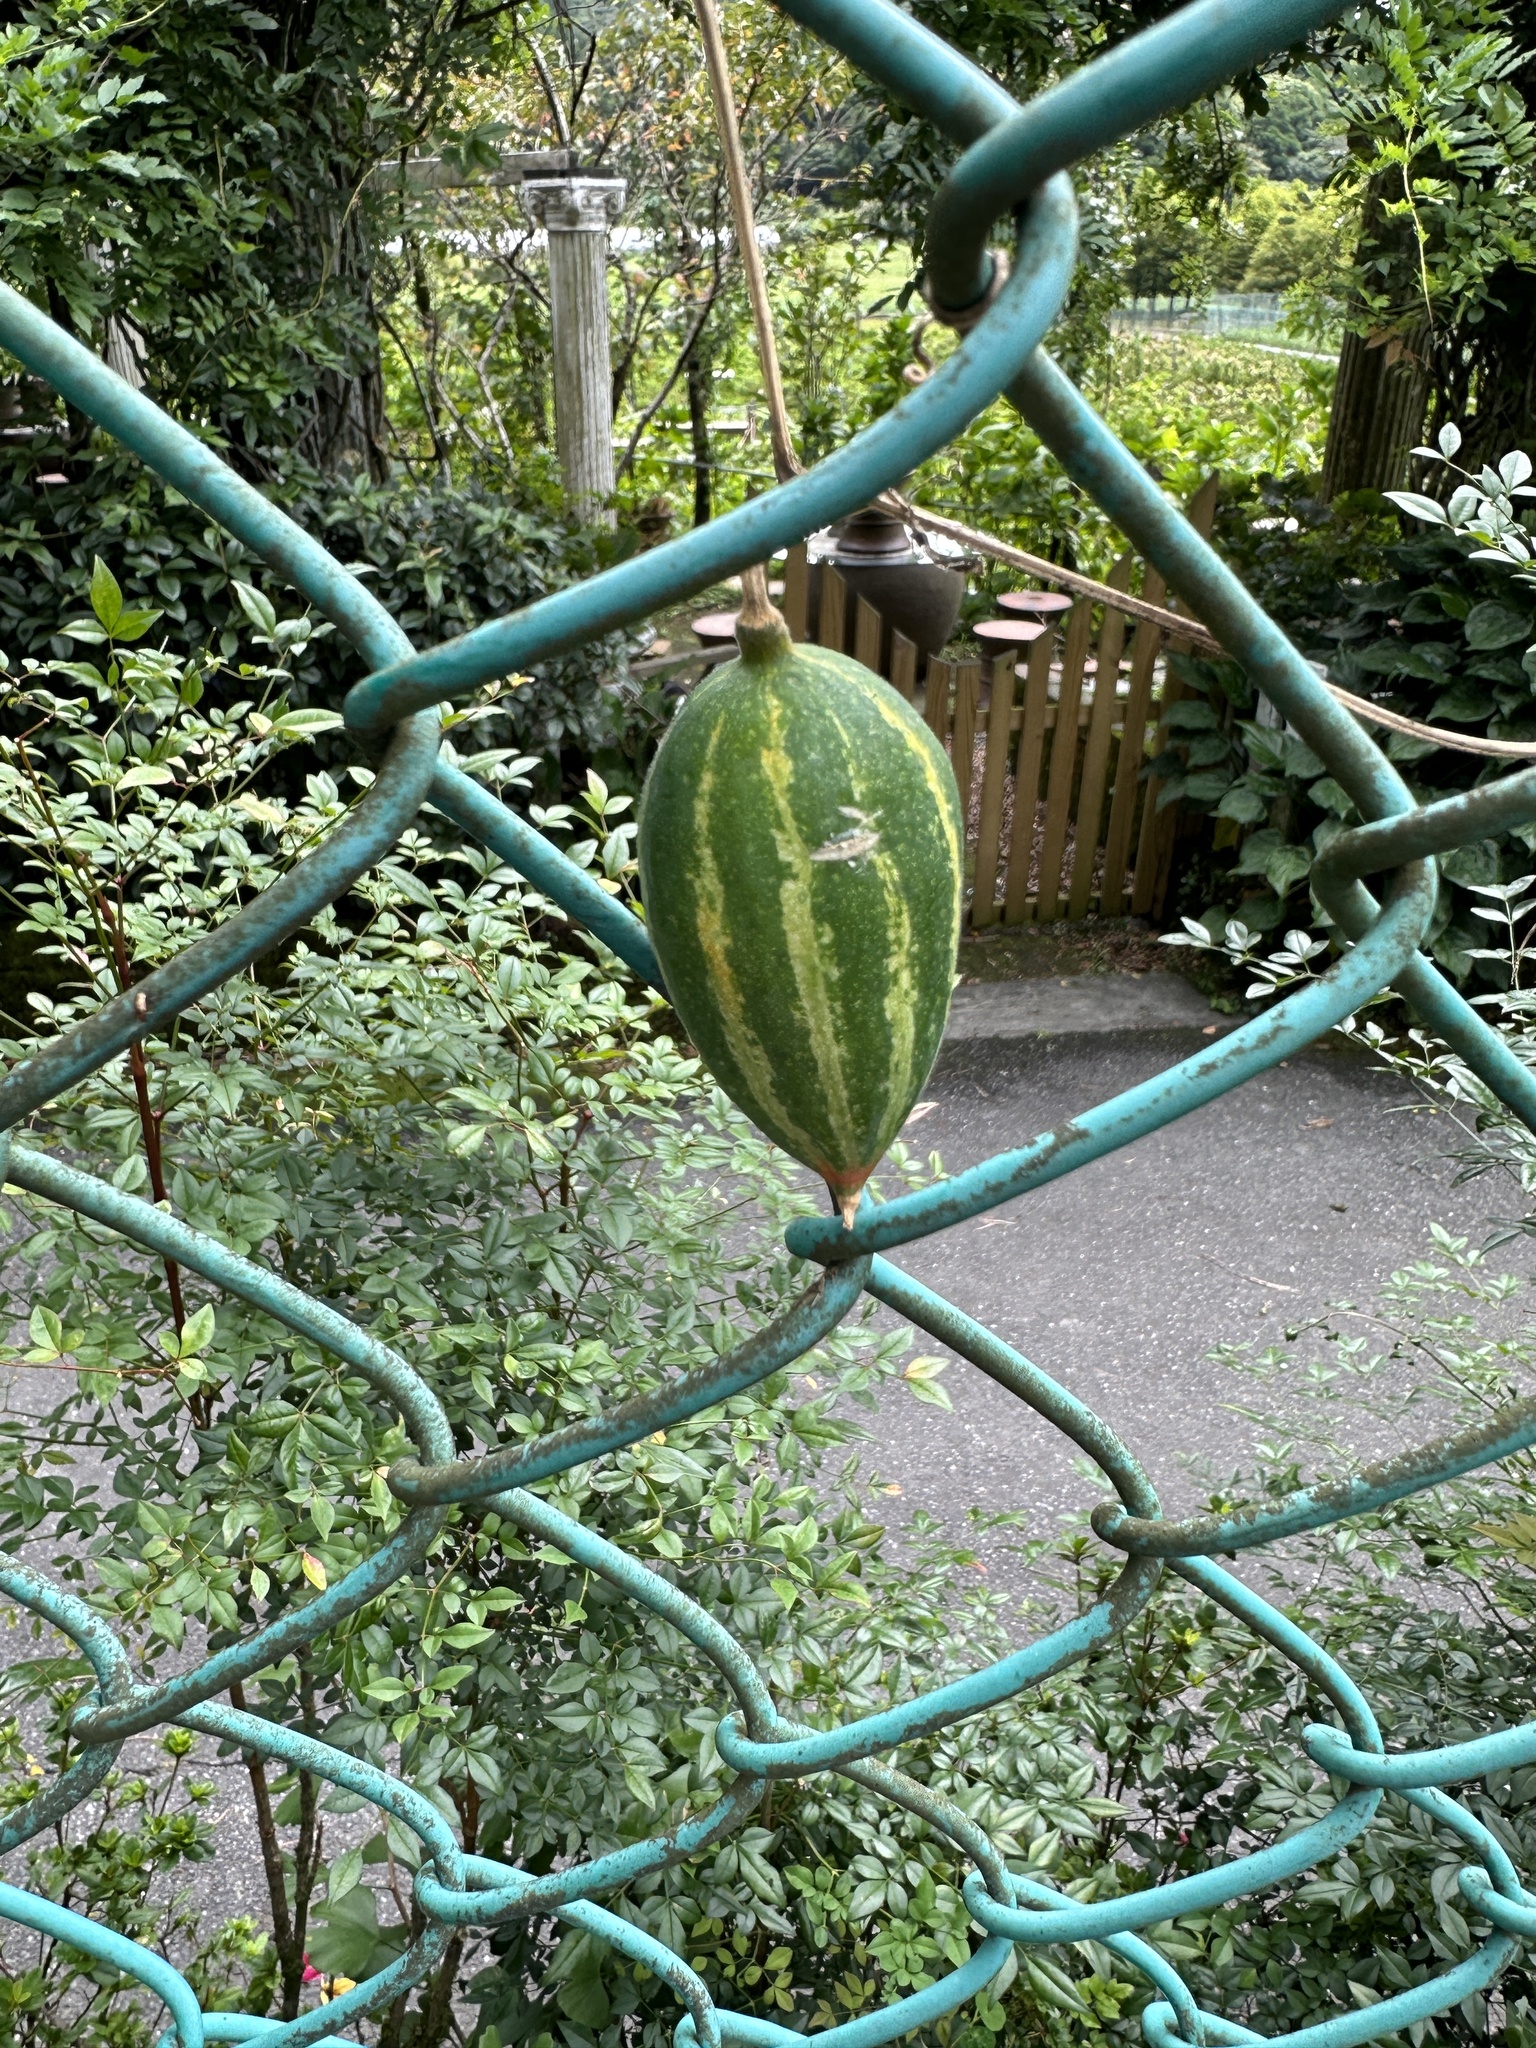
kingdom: Plantae
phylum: Tracheophyta
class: Magnoliopsida
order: Cucurbitales
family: Cucurbitaceae
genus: Trichosanthes
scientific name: Trichosanthes cucumeroides
